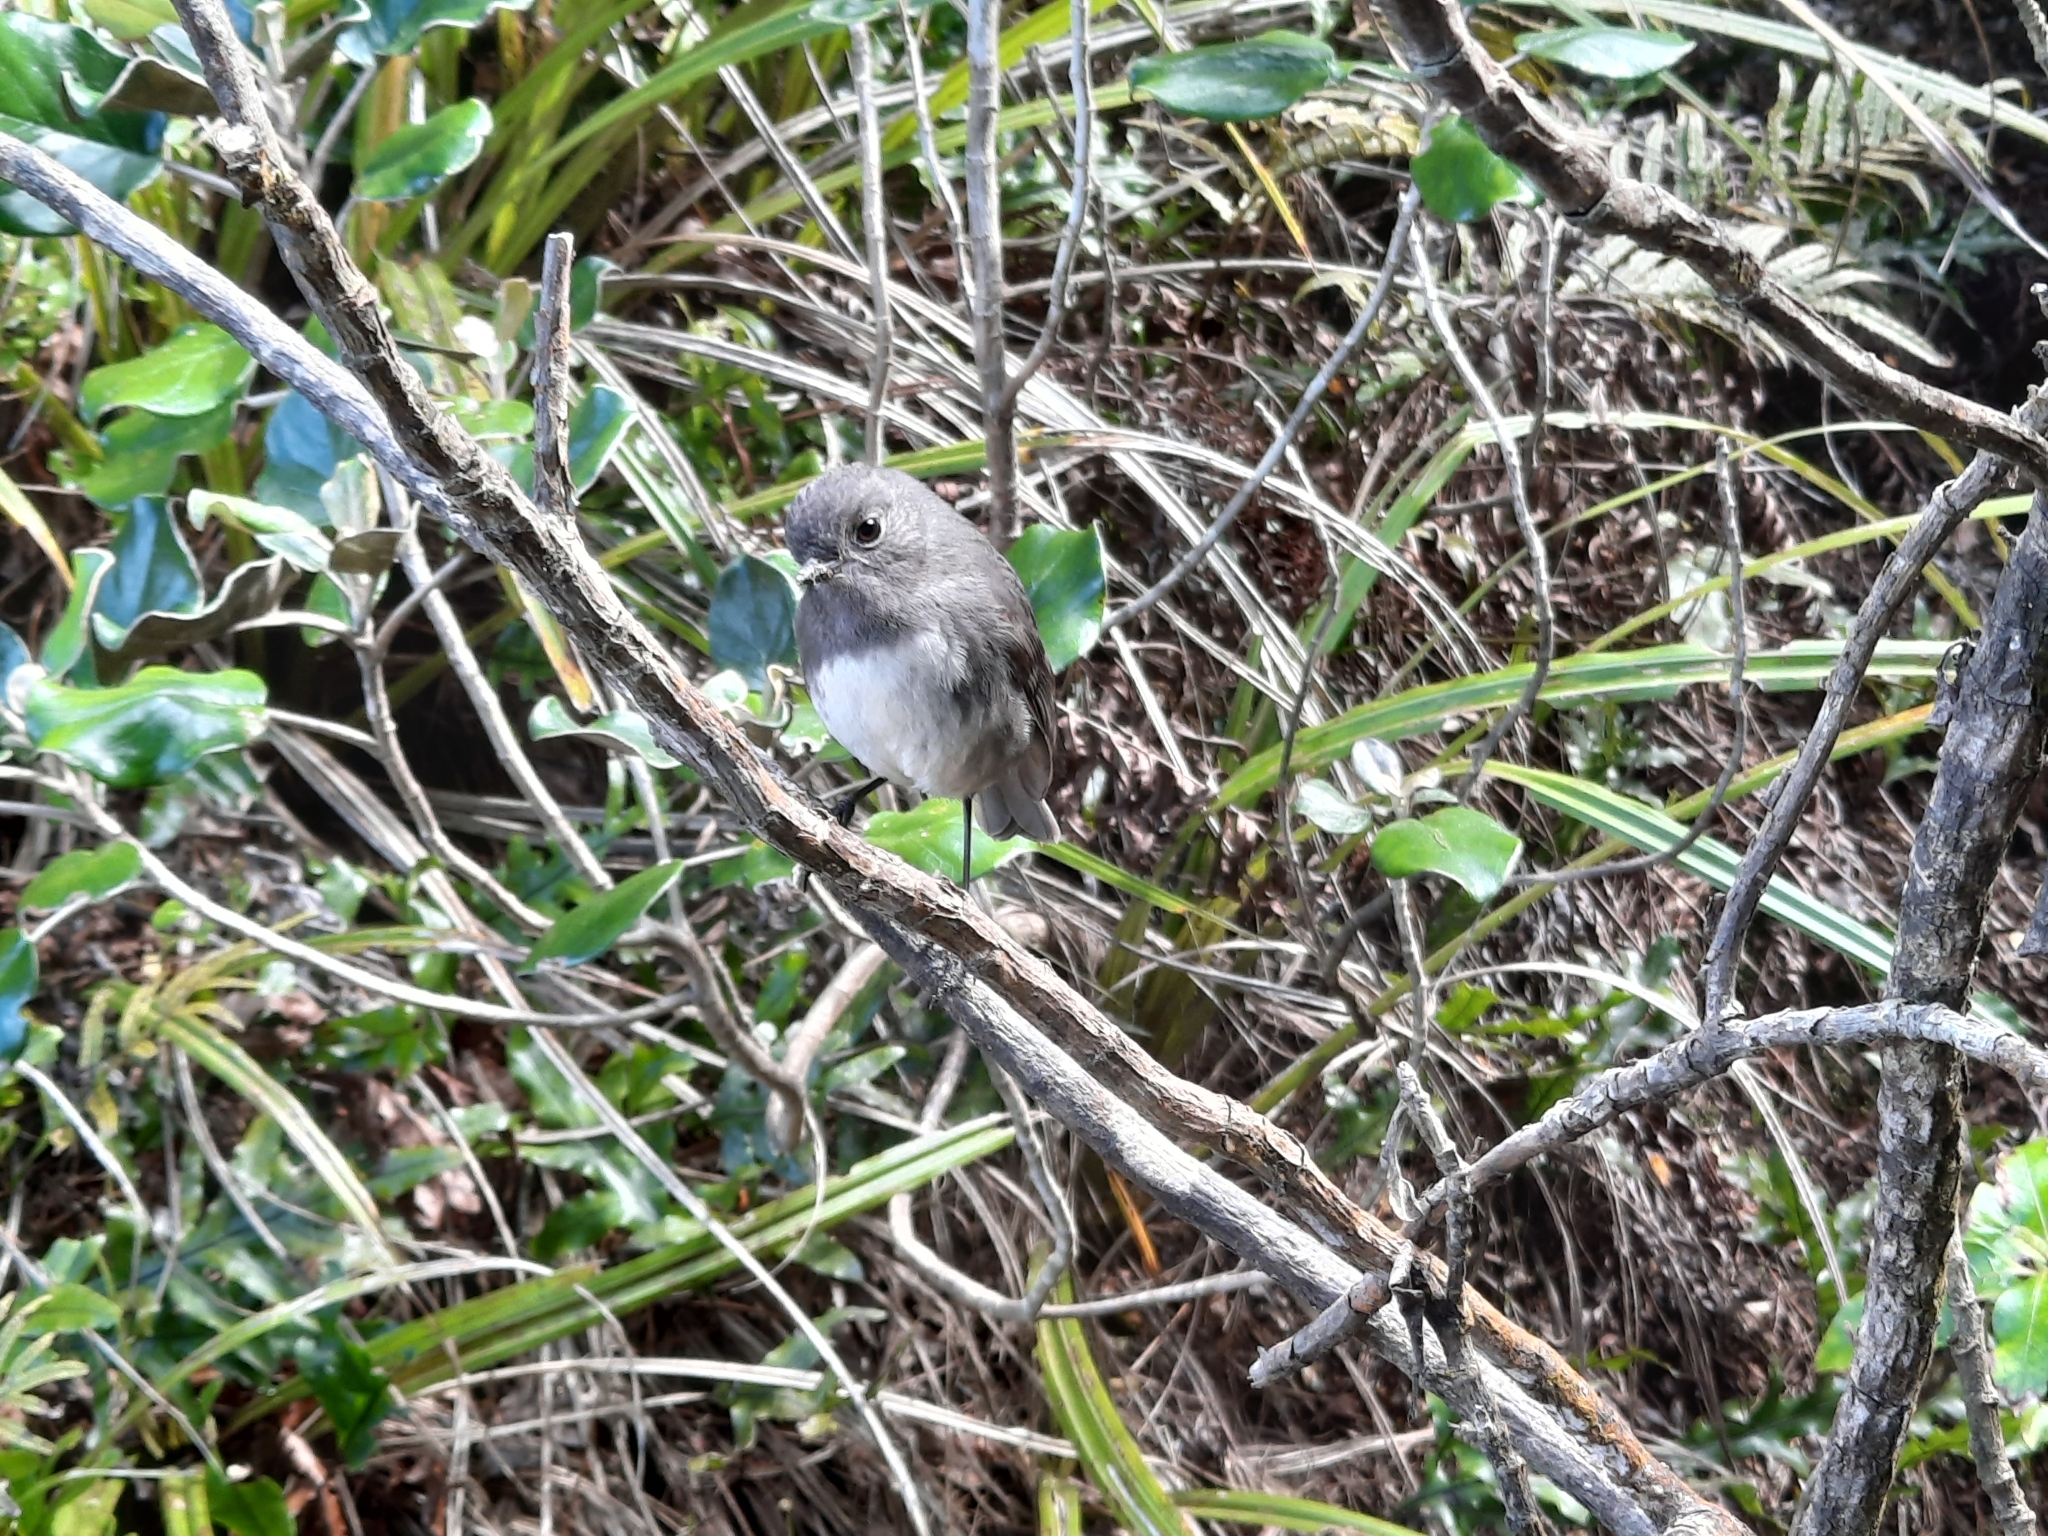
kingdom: Animalia
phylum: Chordata
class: Aves
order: Passeriformes
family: Petroicidae
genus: Petroica
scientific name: Petroica australis
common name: New zealand robin
